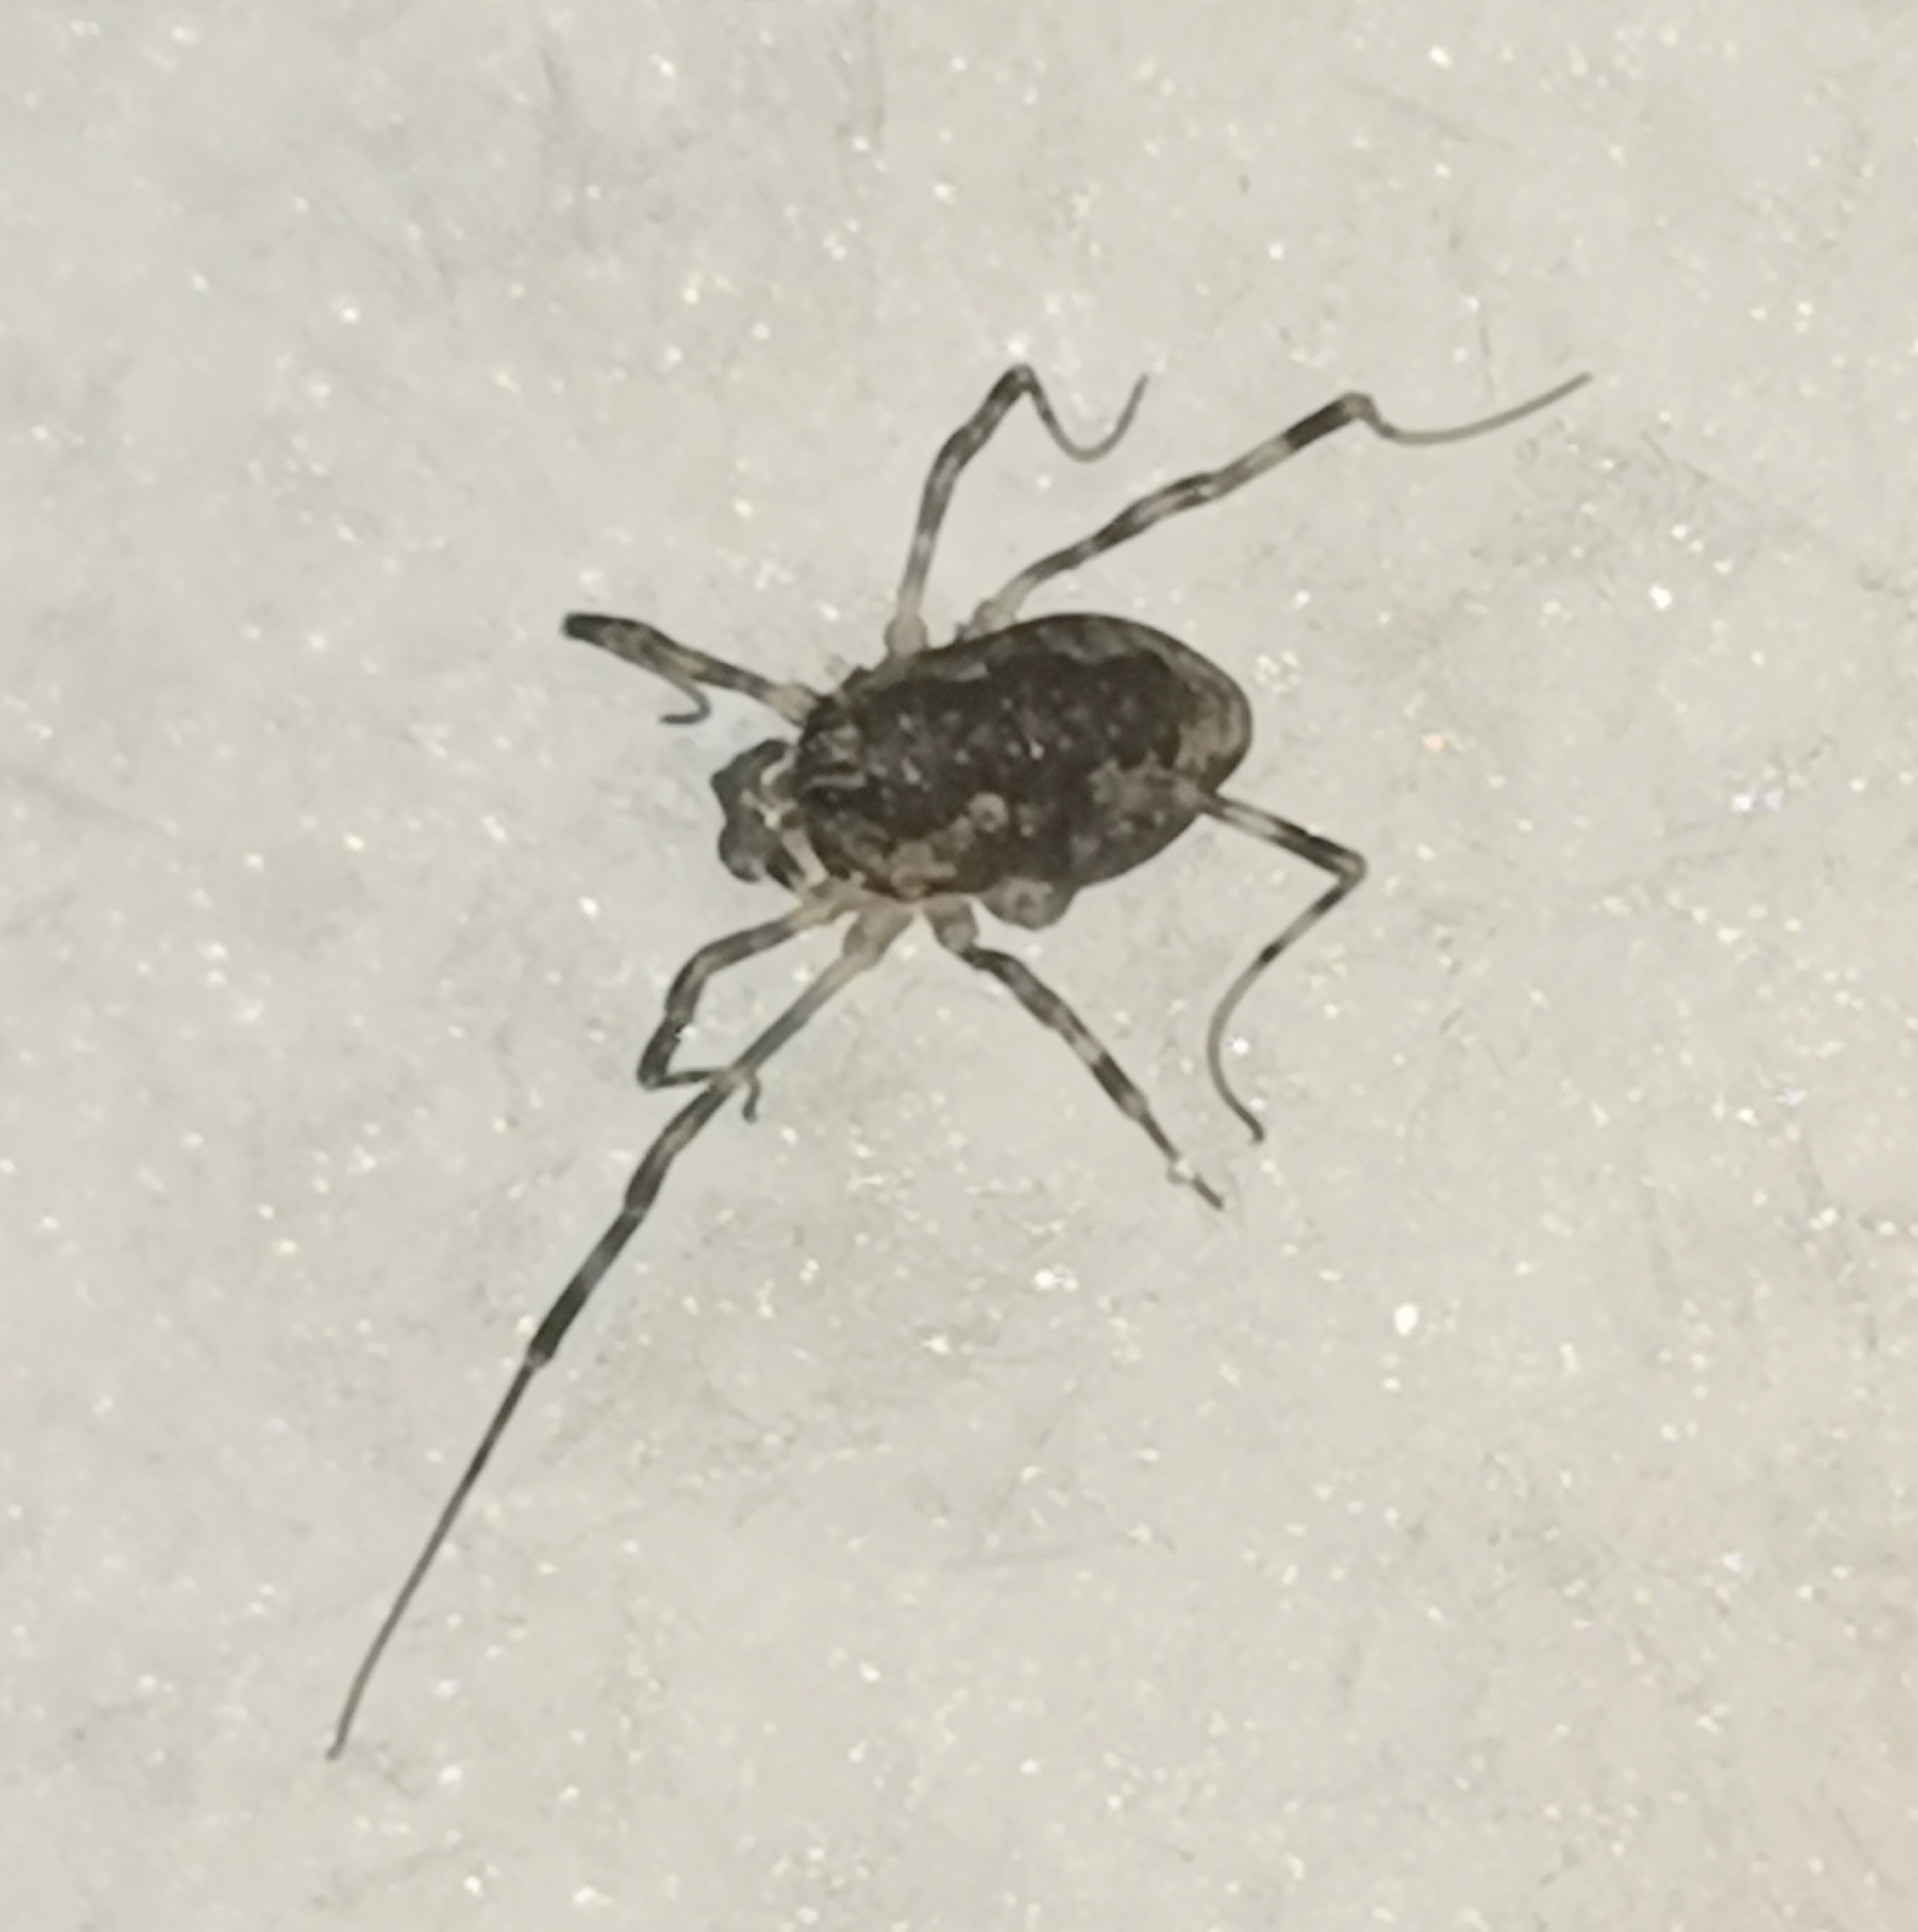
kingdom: Animalia
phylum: Arthropoda
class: Arachnida
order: Opiliones
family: Phalangiidae
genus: Rilaena
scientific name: Rilaena triangularis
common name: Spring harvestman
